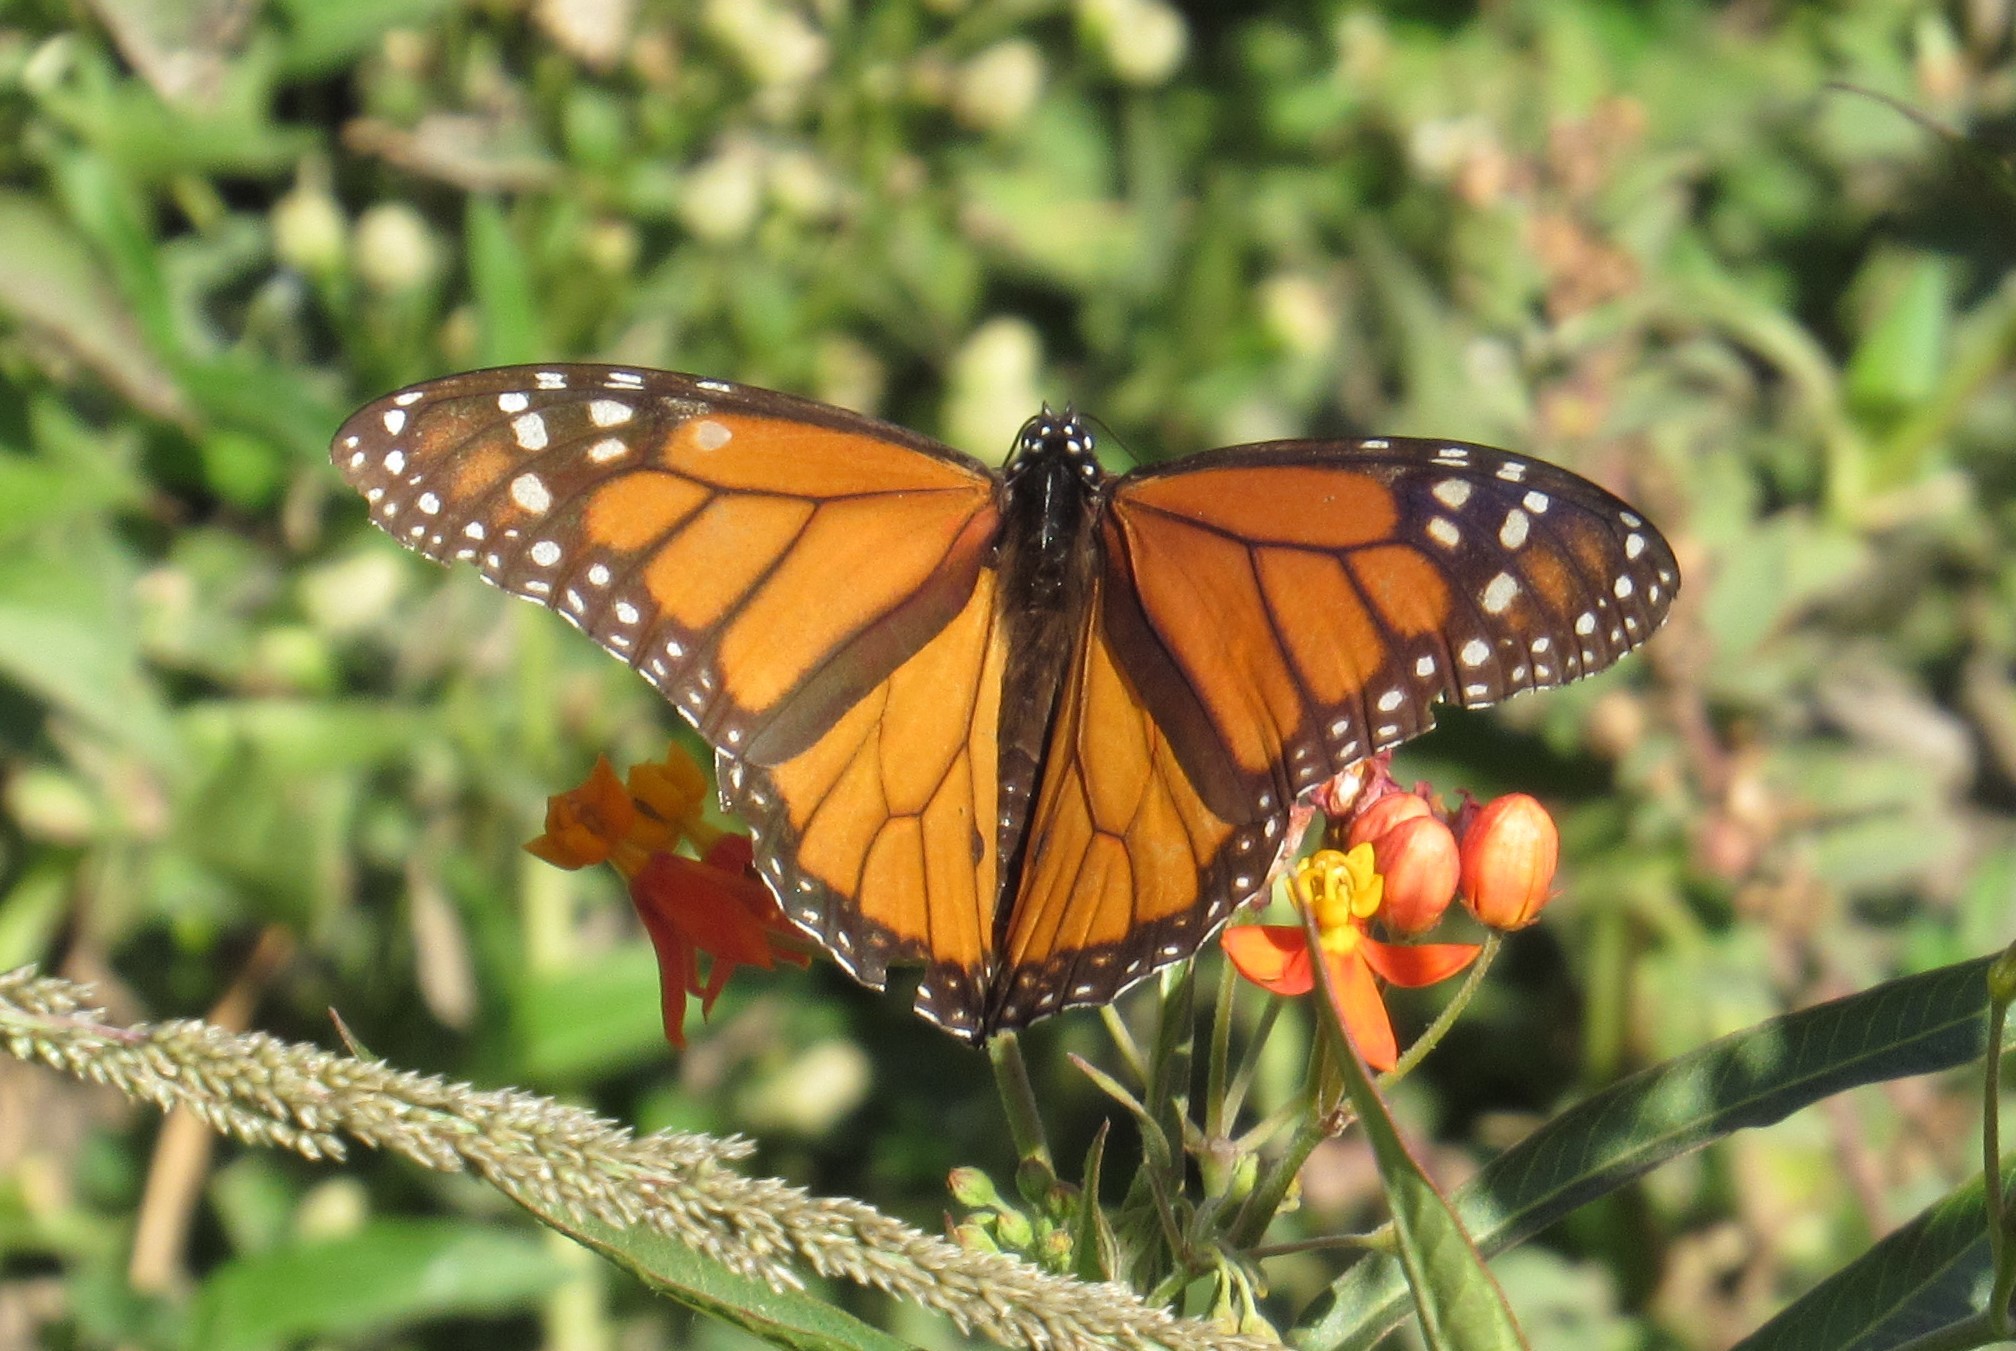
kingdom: Animalia
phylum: Arthropoda
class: Insecta
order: Lepidoptera
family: Nymphalidae
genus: Danaus
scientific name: Danaus plexippus
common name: Monarch
